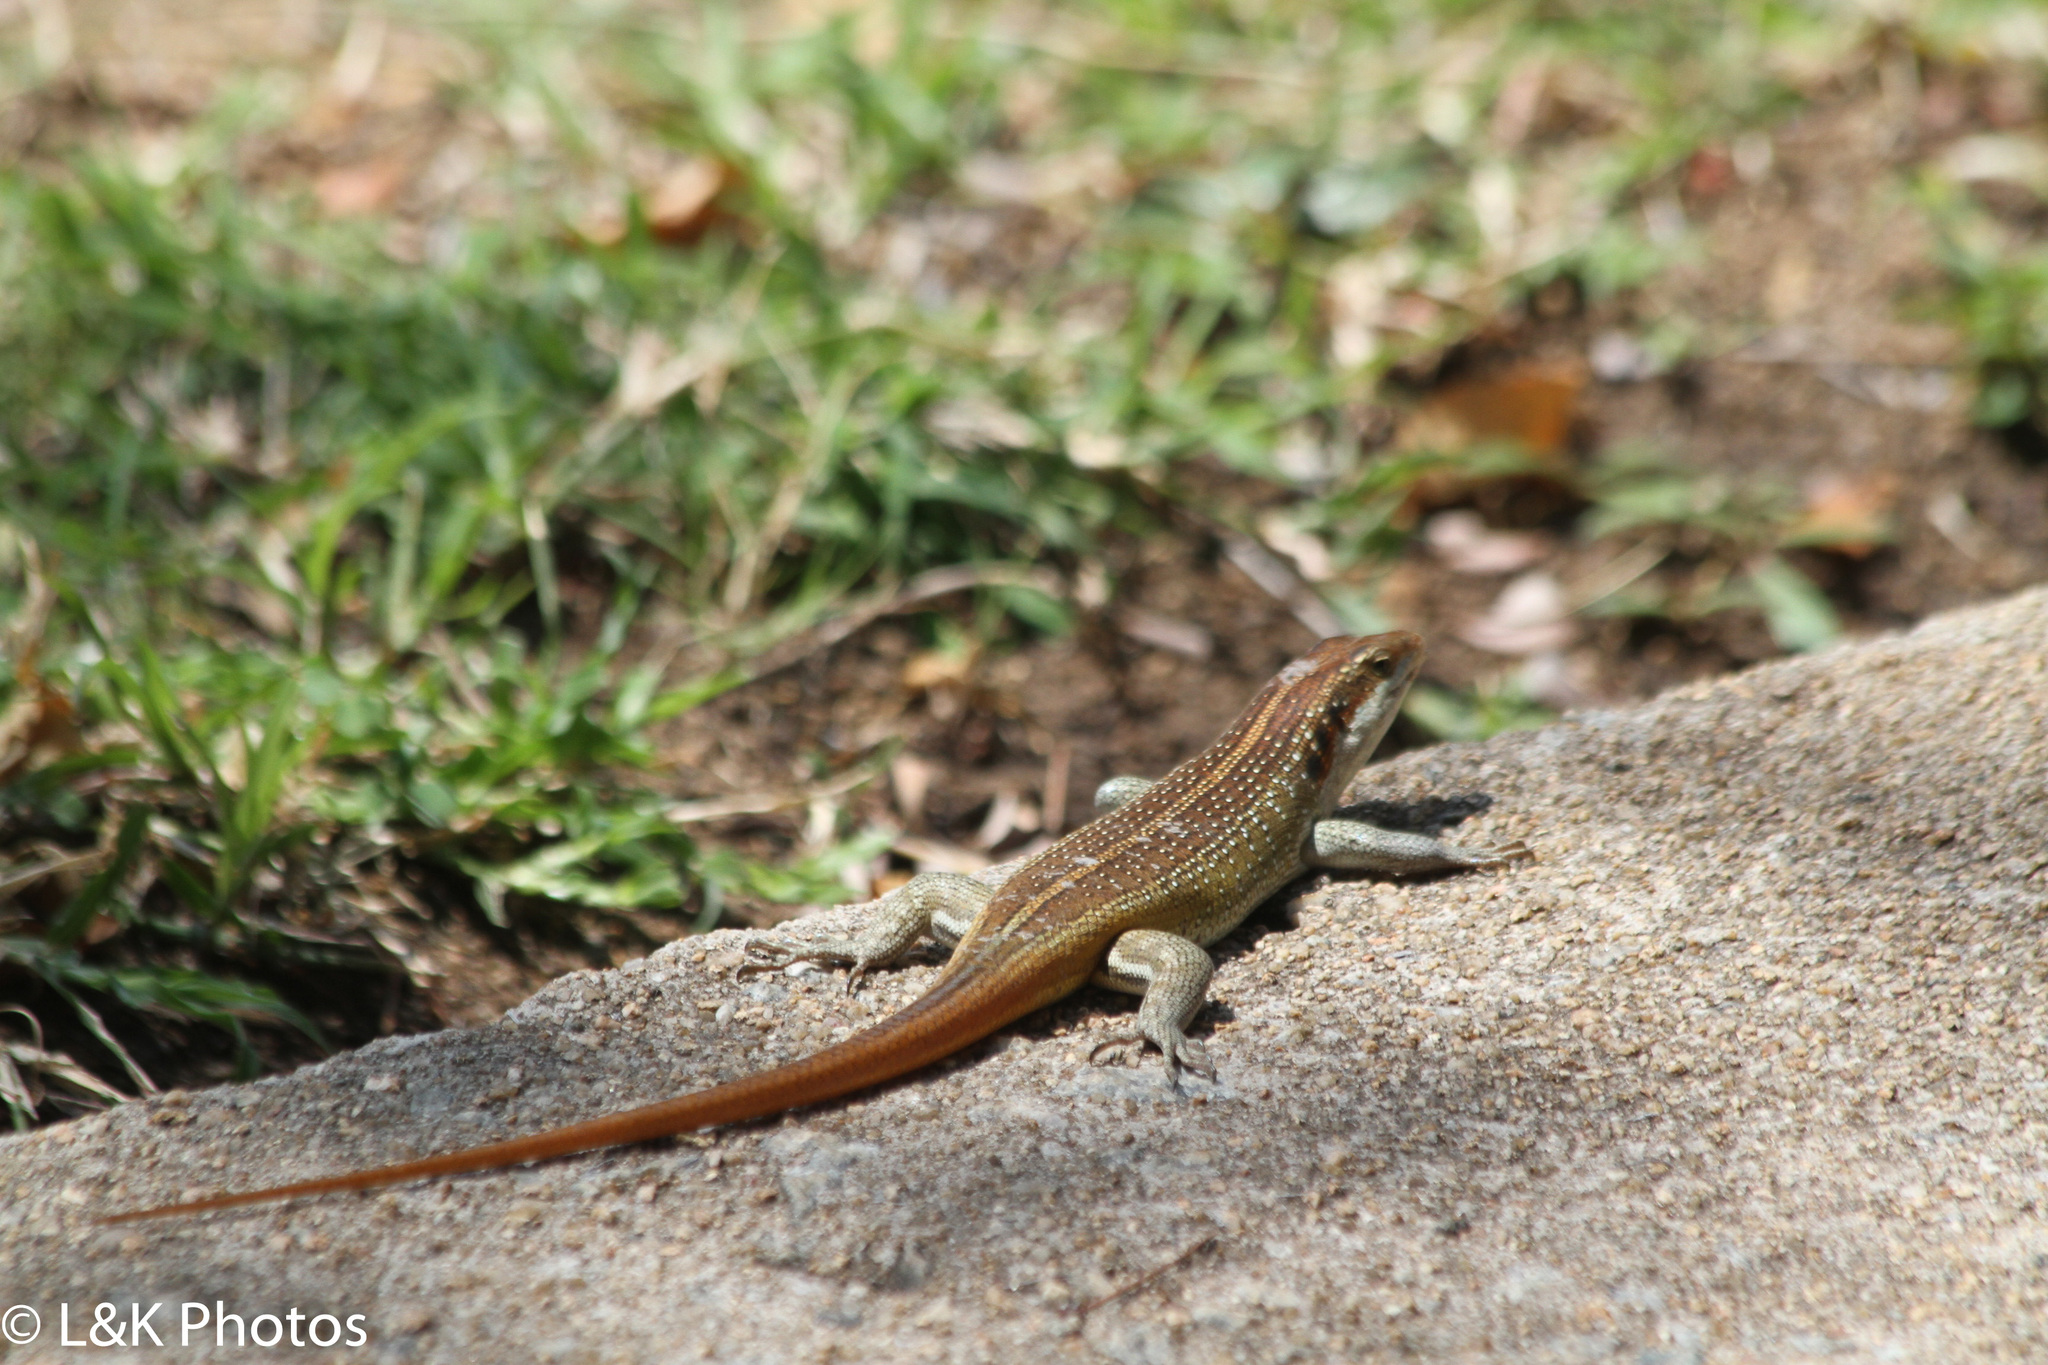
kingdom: Animalia
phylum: Chordata
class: Squamata
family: Scincidae
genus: Trachylepis
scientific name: Trachylepis margaritifera
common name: Rainbow skink
